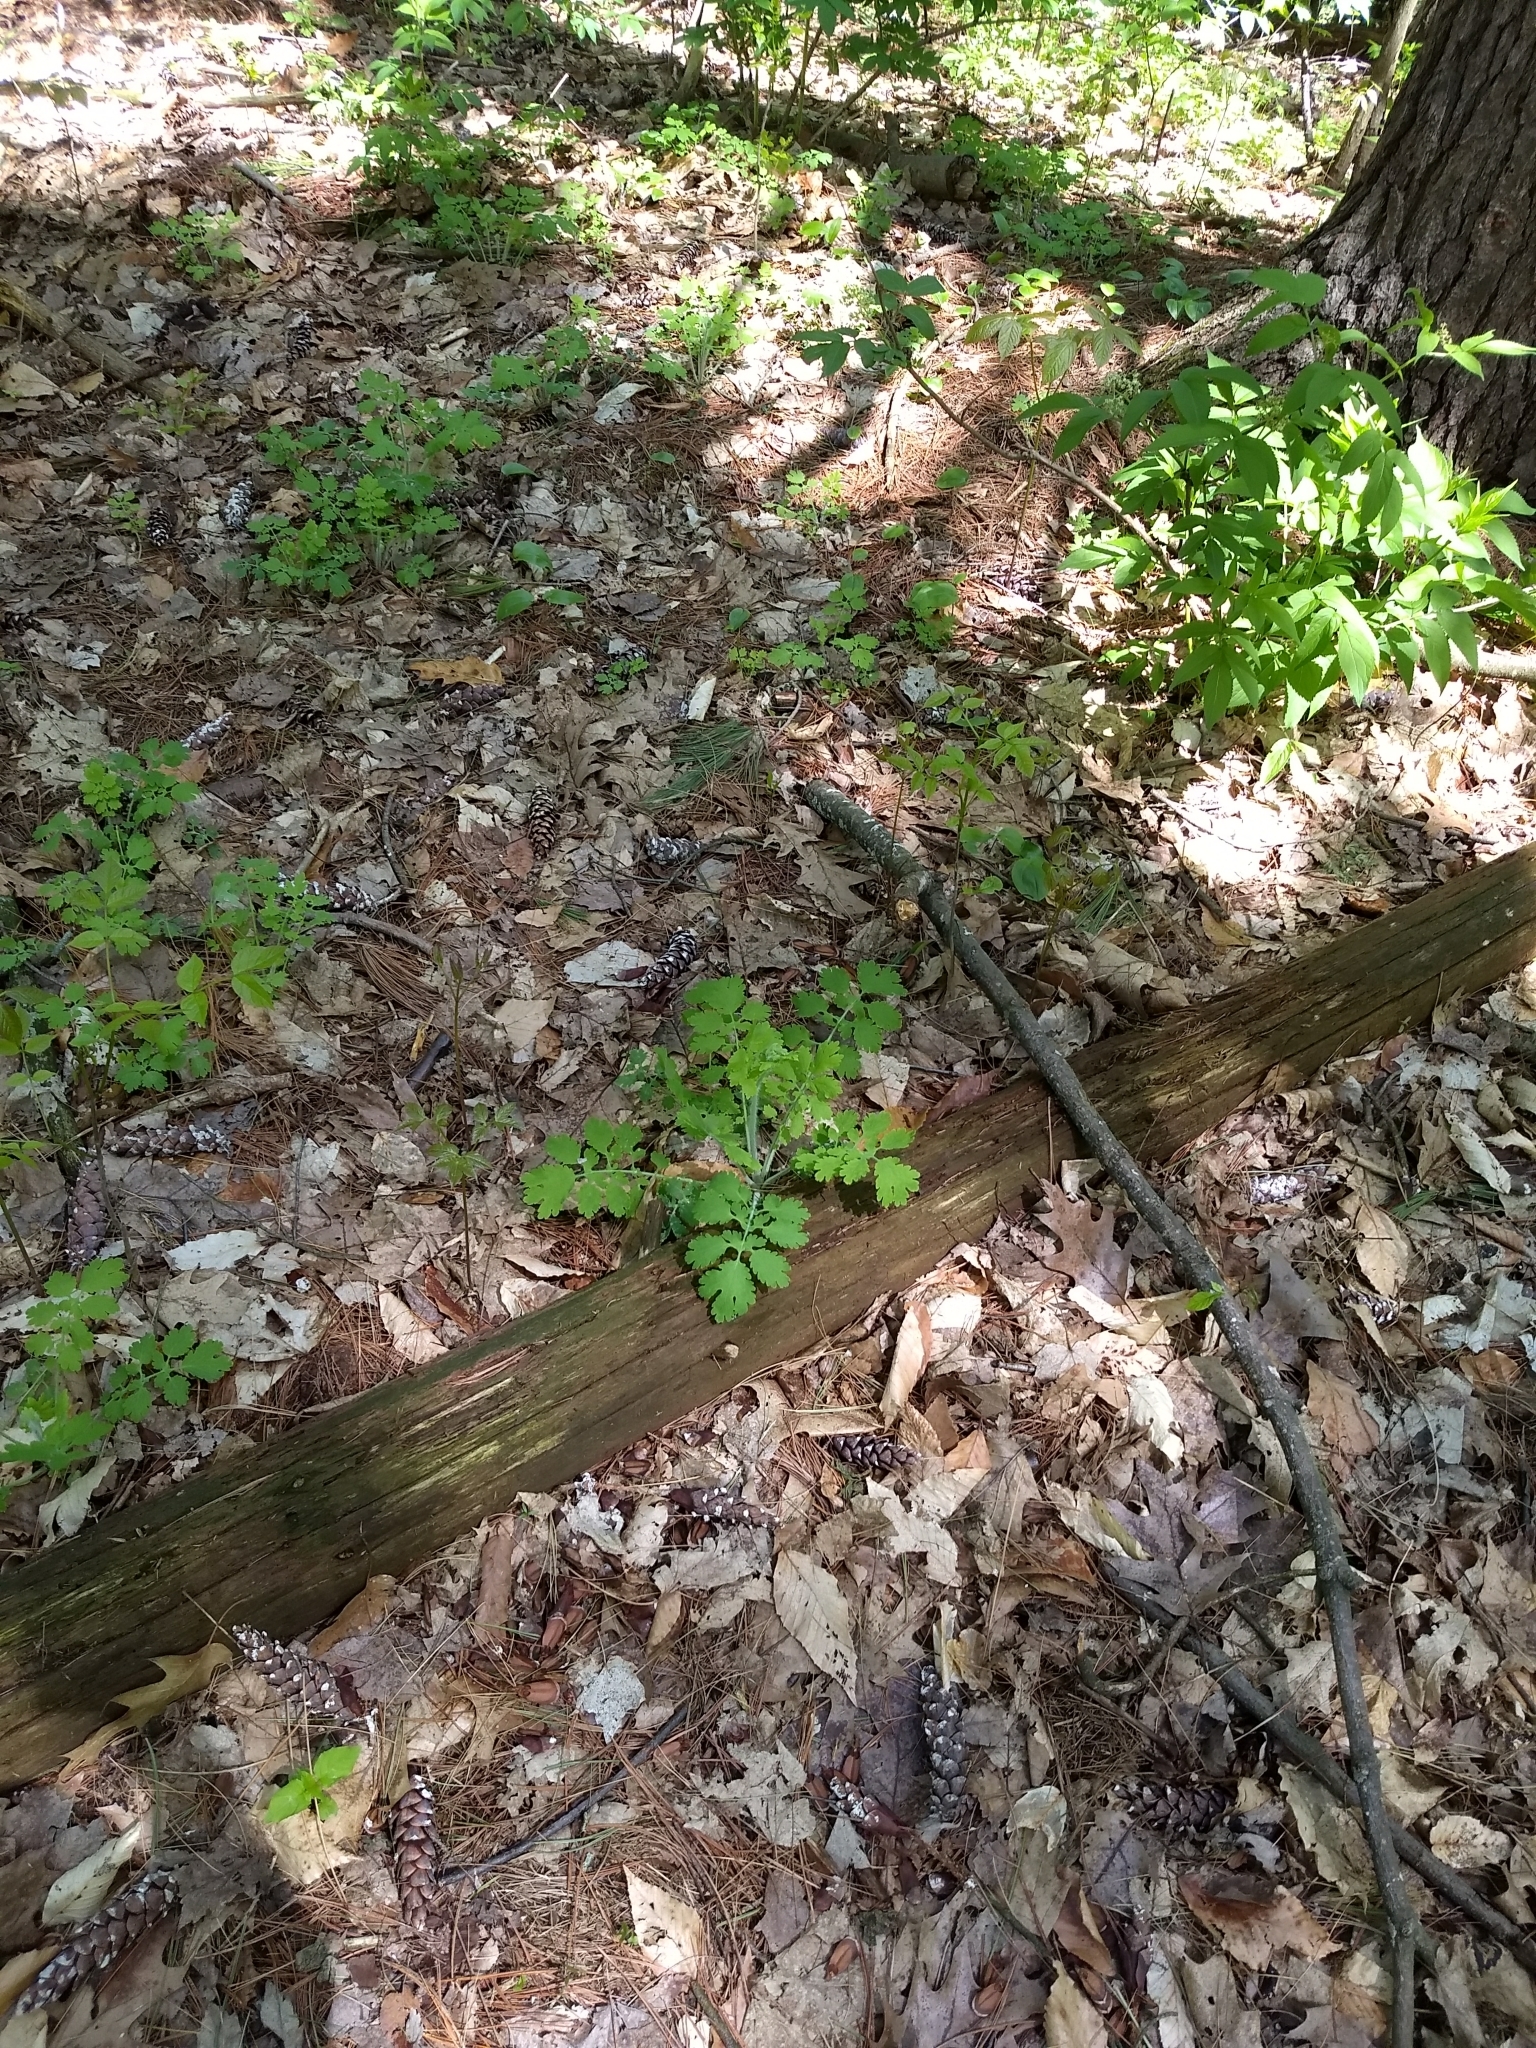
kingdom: Plantae
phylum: Tracheophyta
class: Magnoliopsida
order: Ranunculales
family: Papaveraceae
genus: Chelidonium
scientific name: Chelidonium majus
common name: Greater celandine
